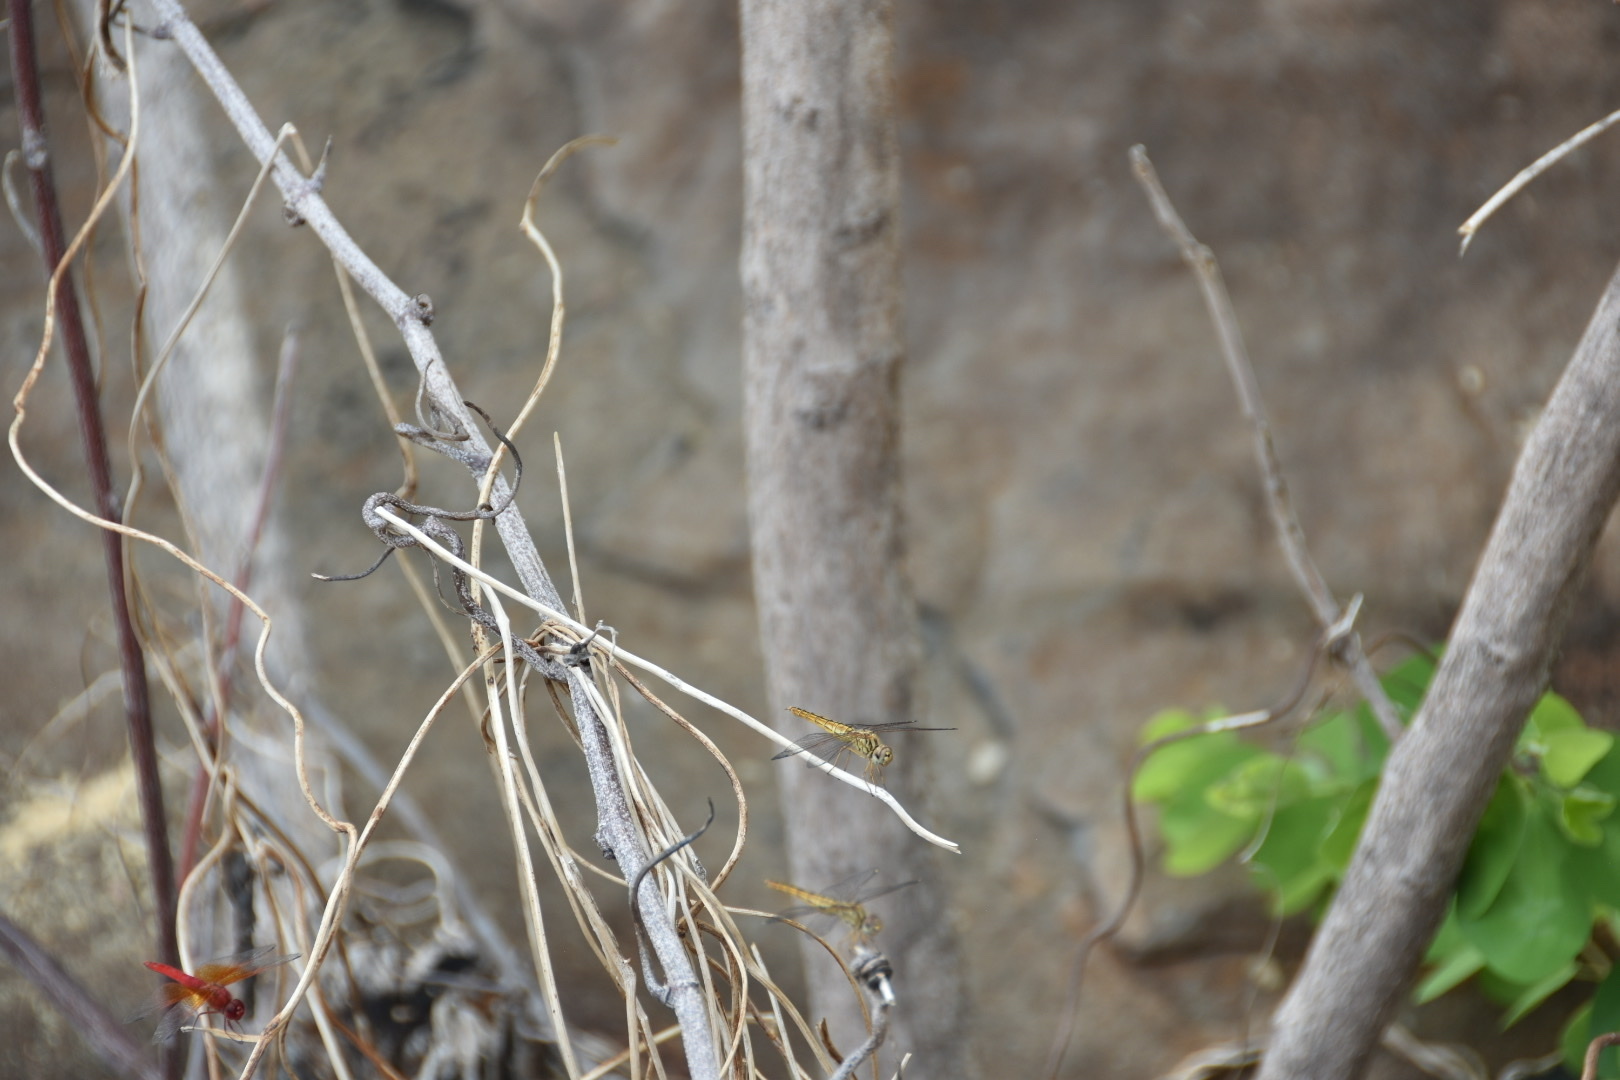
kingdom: Animalia
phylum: Arthropoda
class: Insecta
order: Odonata
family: Libellulidae
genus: Brachythemis
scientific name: Brachythemis lacustris
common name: Red groundling
